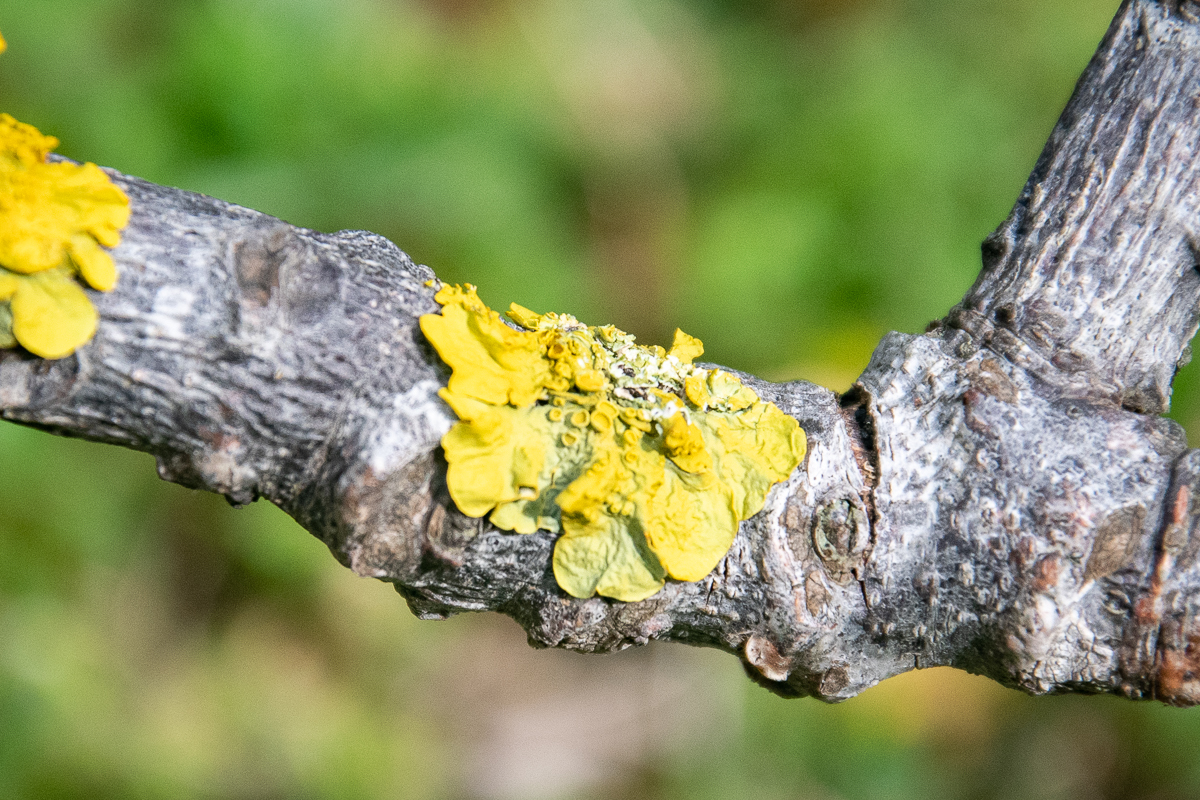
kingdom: Fungi
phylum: Ascomycota
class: Lecanoromycetes
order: Teloschistales
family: Teloschistaceae
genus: Xanthoria
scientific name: Xanthoria parietina
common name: Common orange lichen
